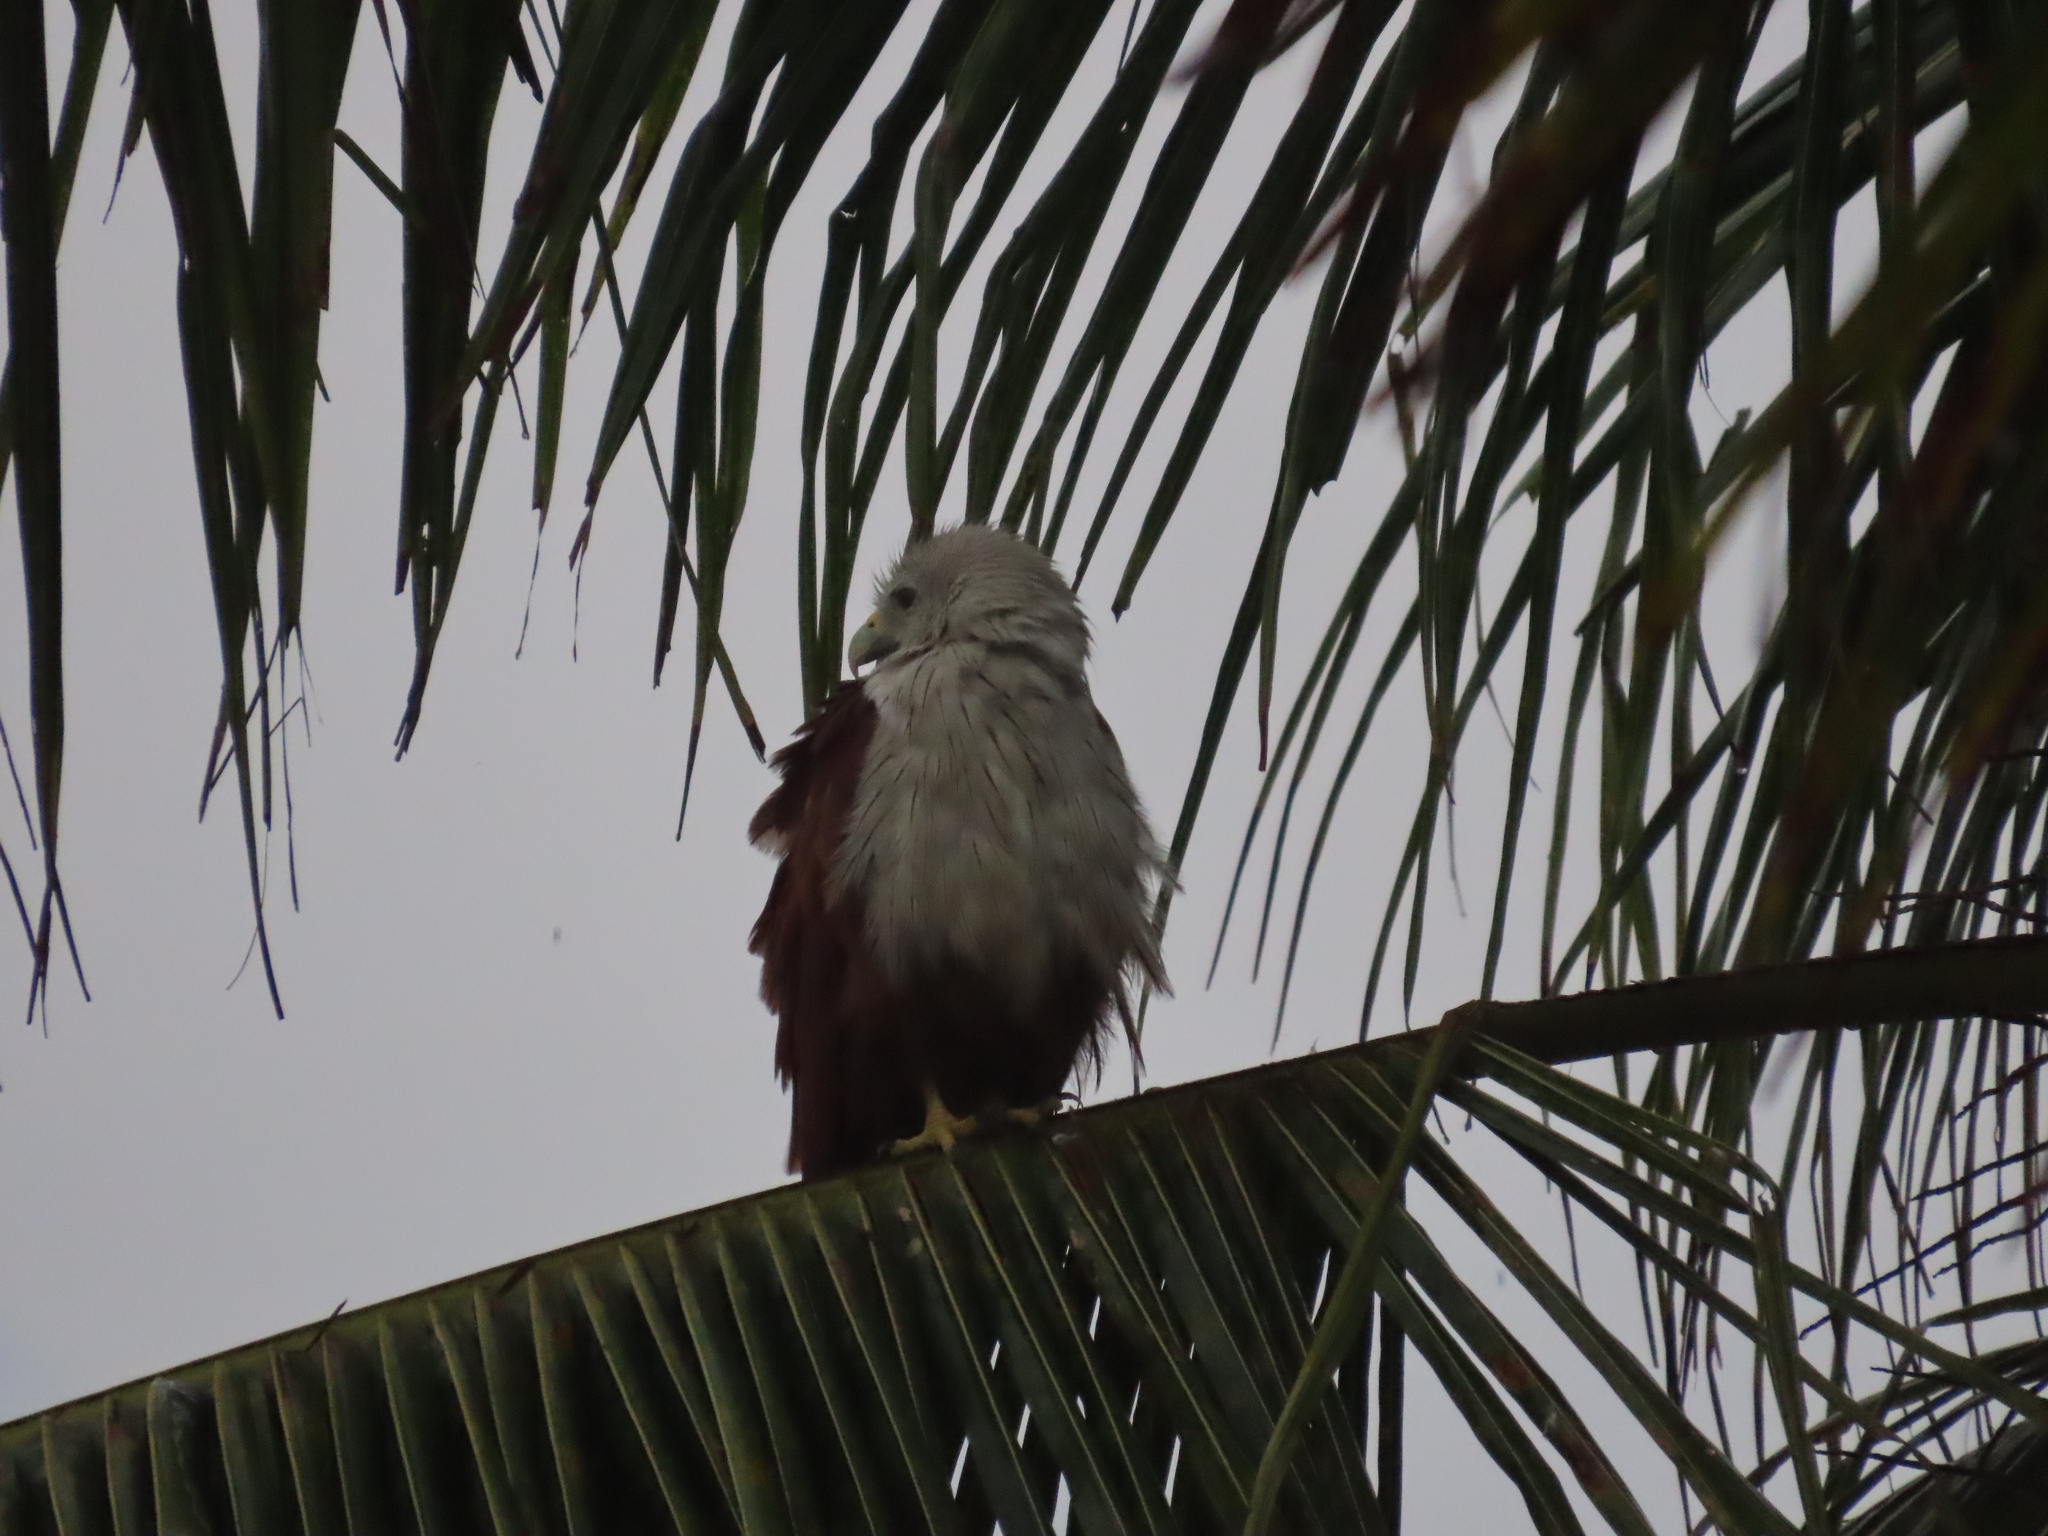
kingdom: Animalia
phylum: Chordata
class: Aves
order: Accipitriformes
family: Accipitridae
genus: Haliastur
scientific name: Haliastur indus
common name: Brahminy kite
